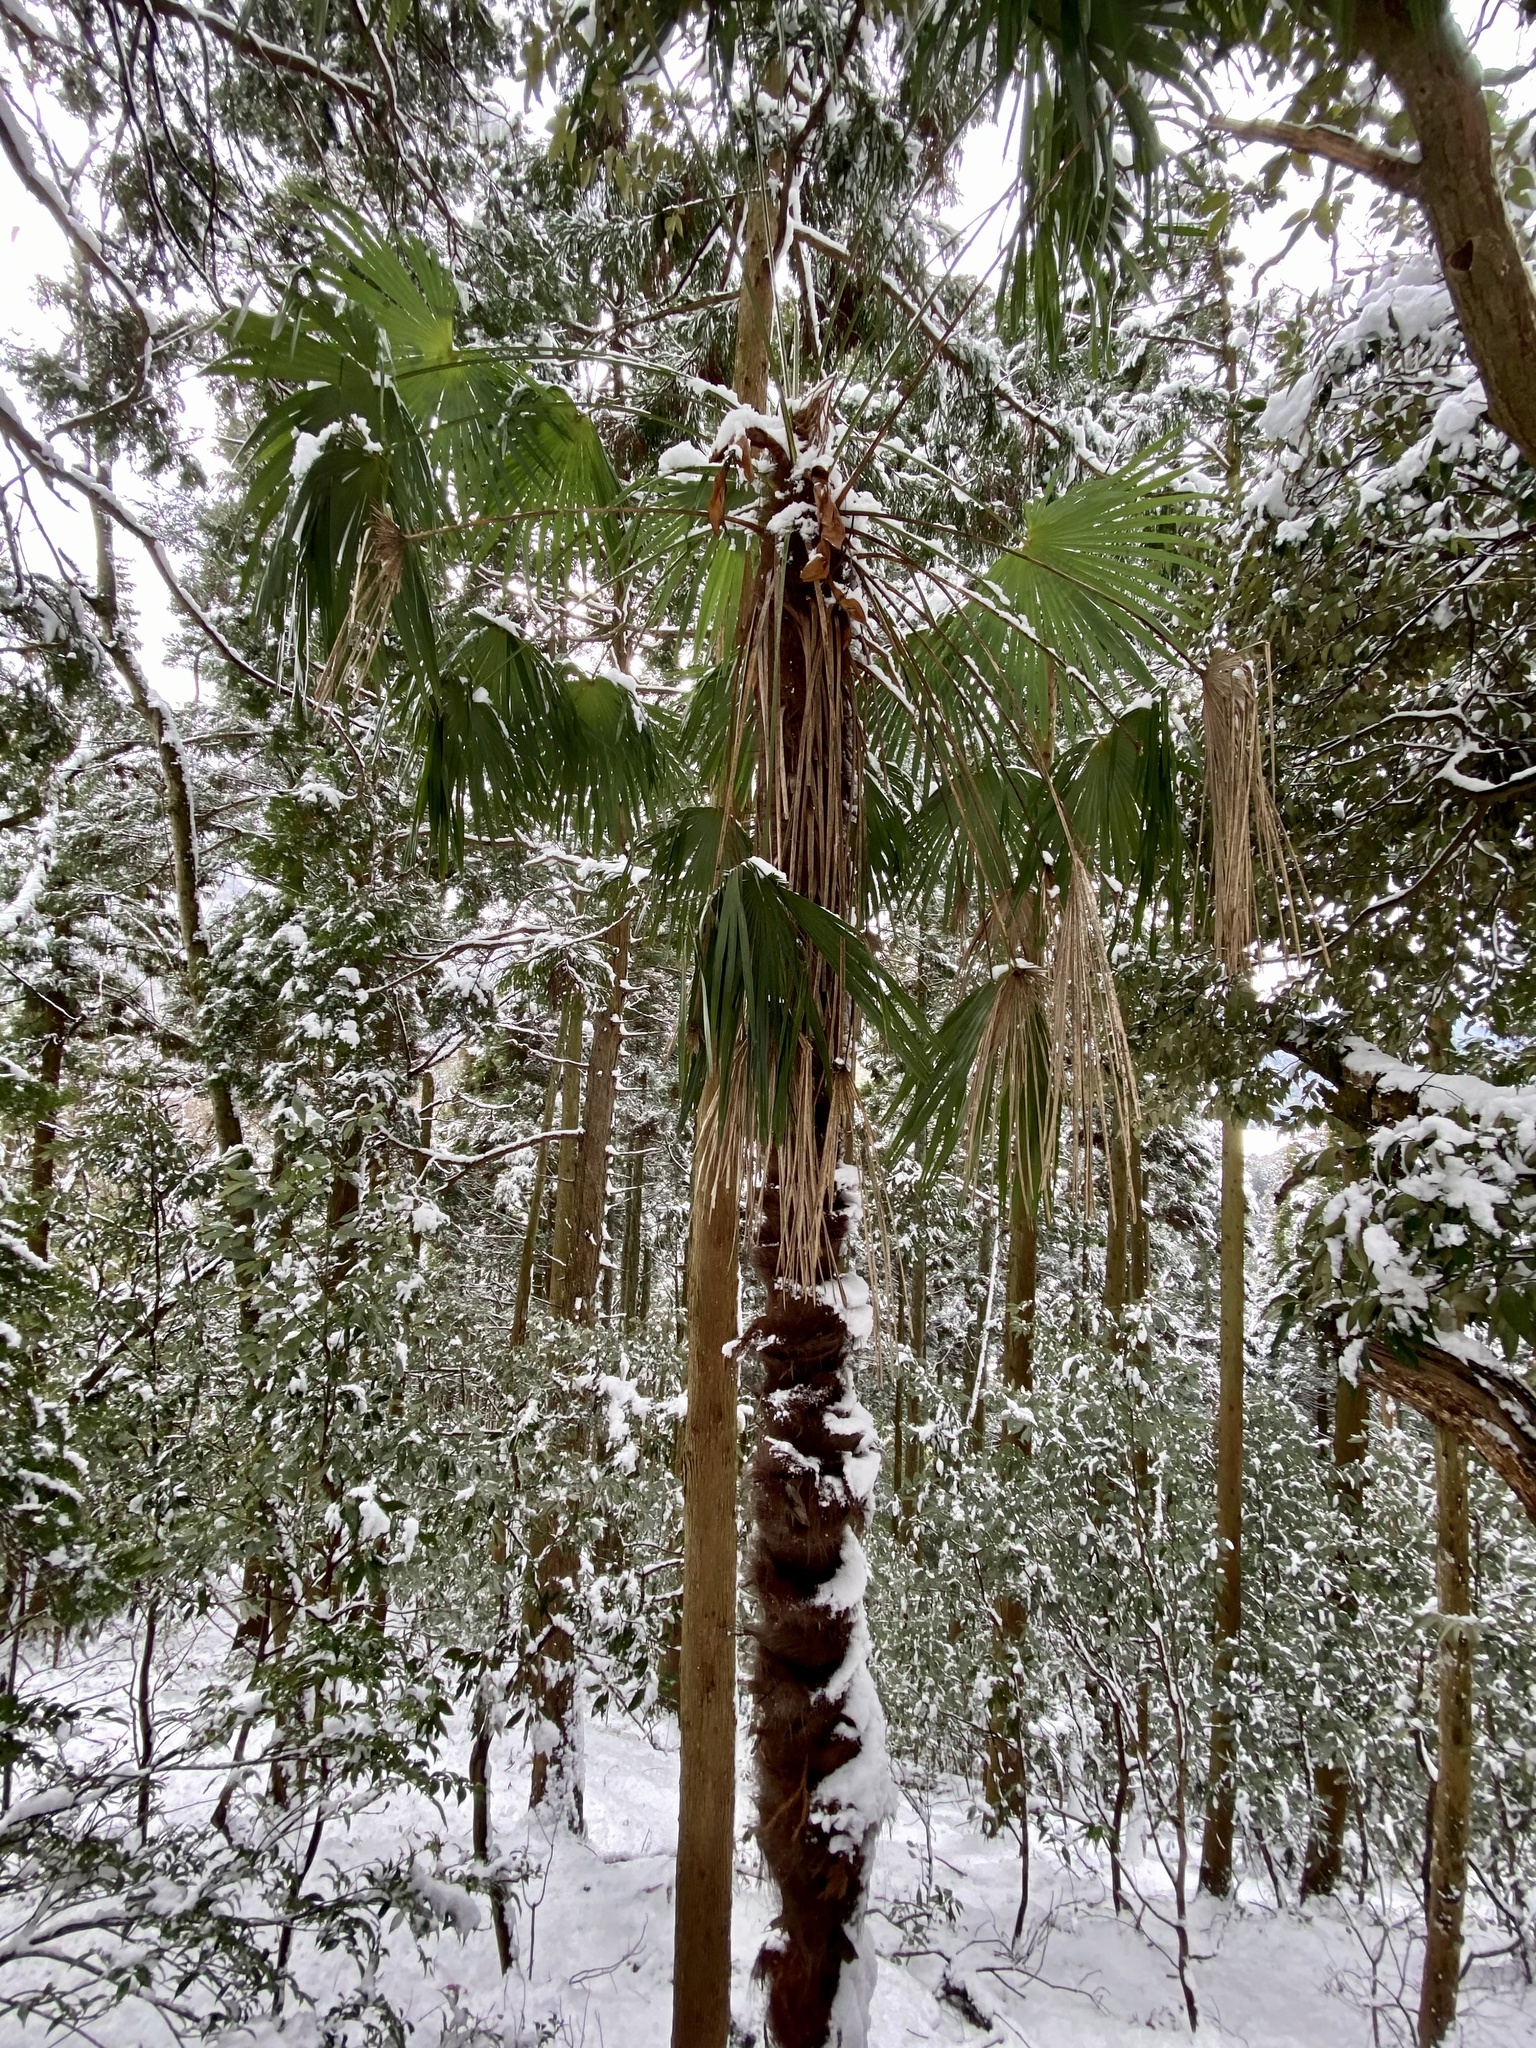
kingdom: Plantae
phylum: Tracheophyta
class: Liliopsida
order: Arecales
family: Arecaceae
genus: Trachycarpus
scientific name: Trachycarpus fortunei
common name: Chusan palm
